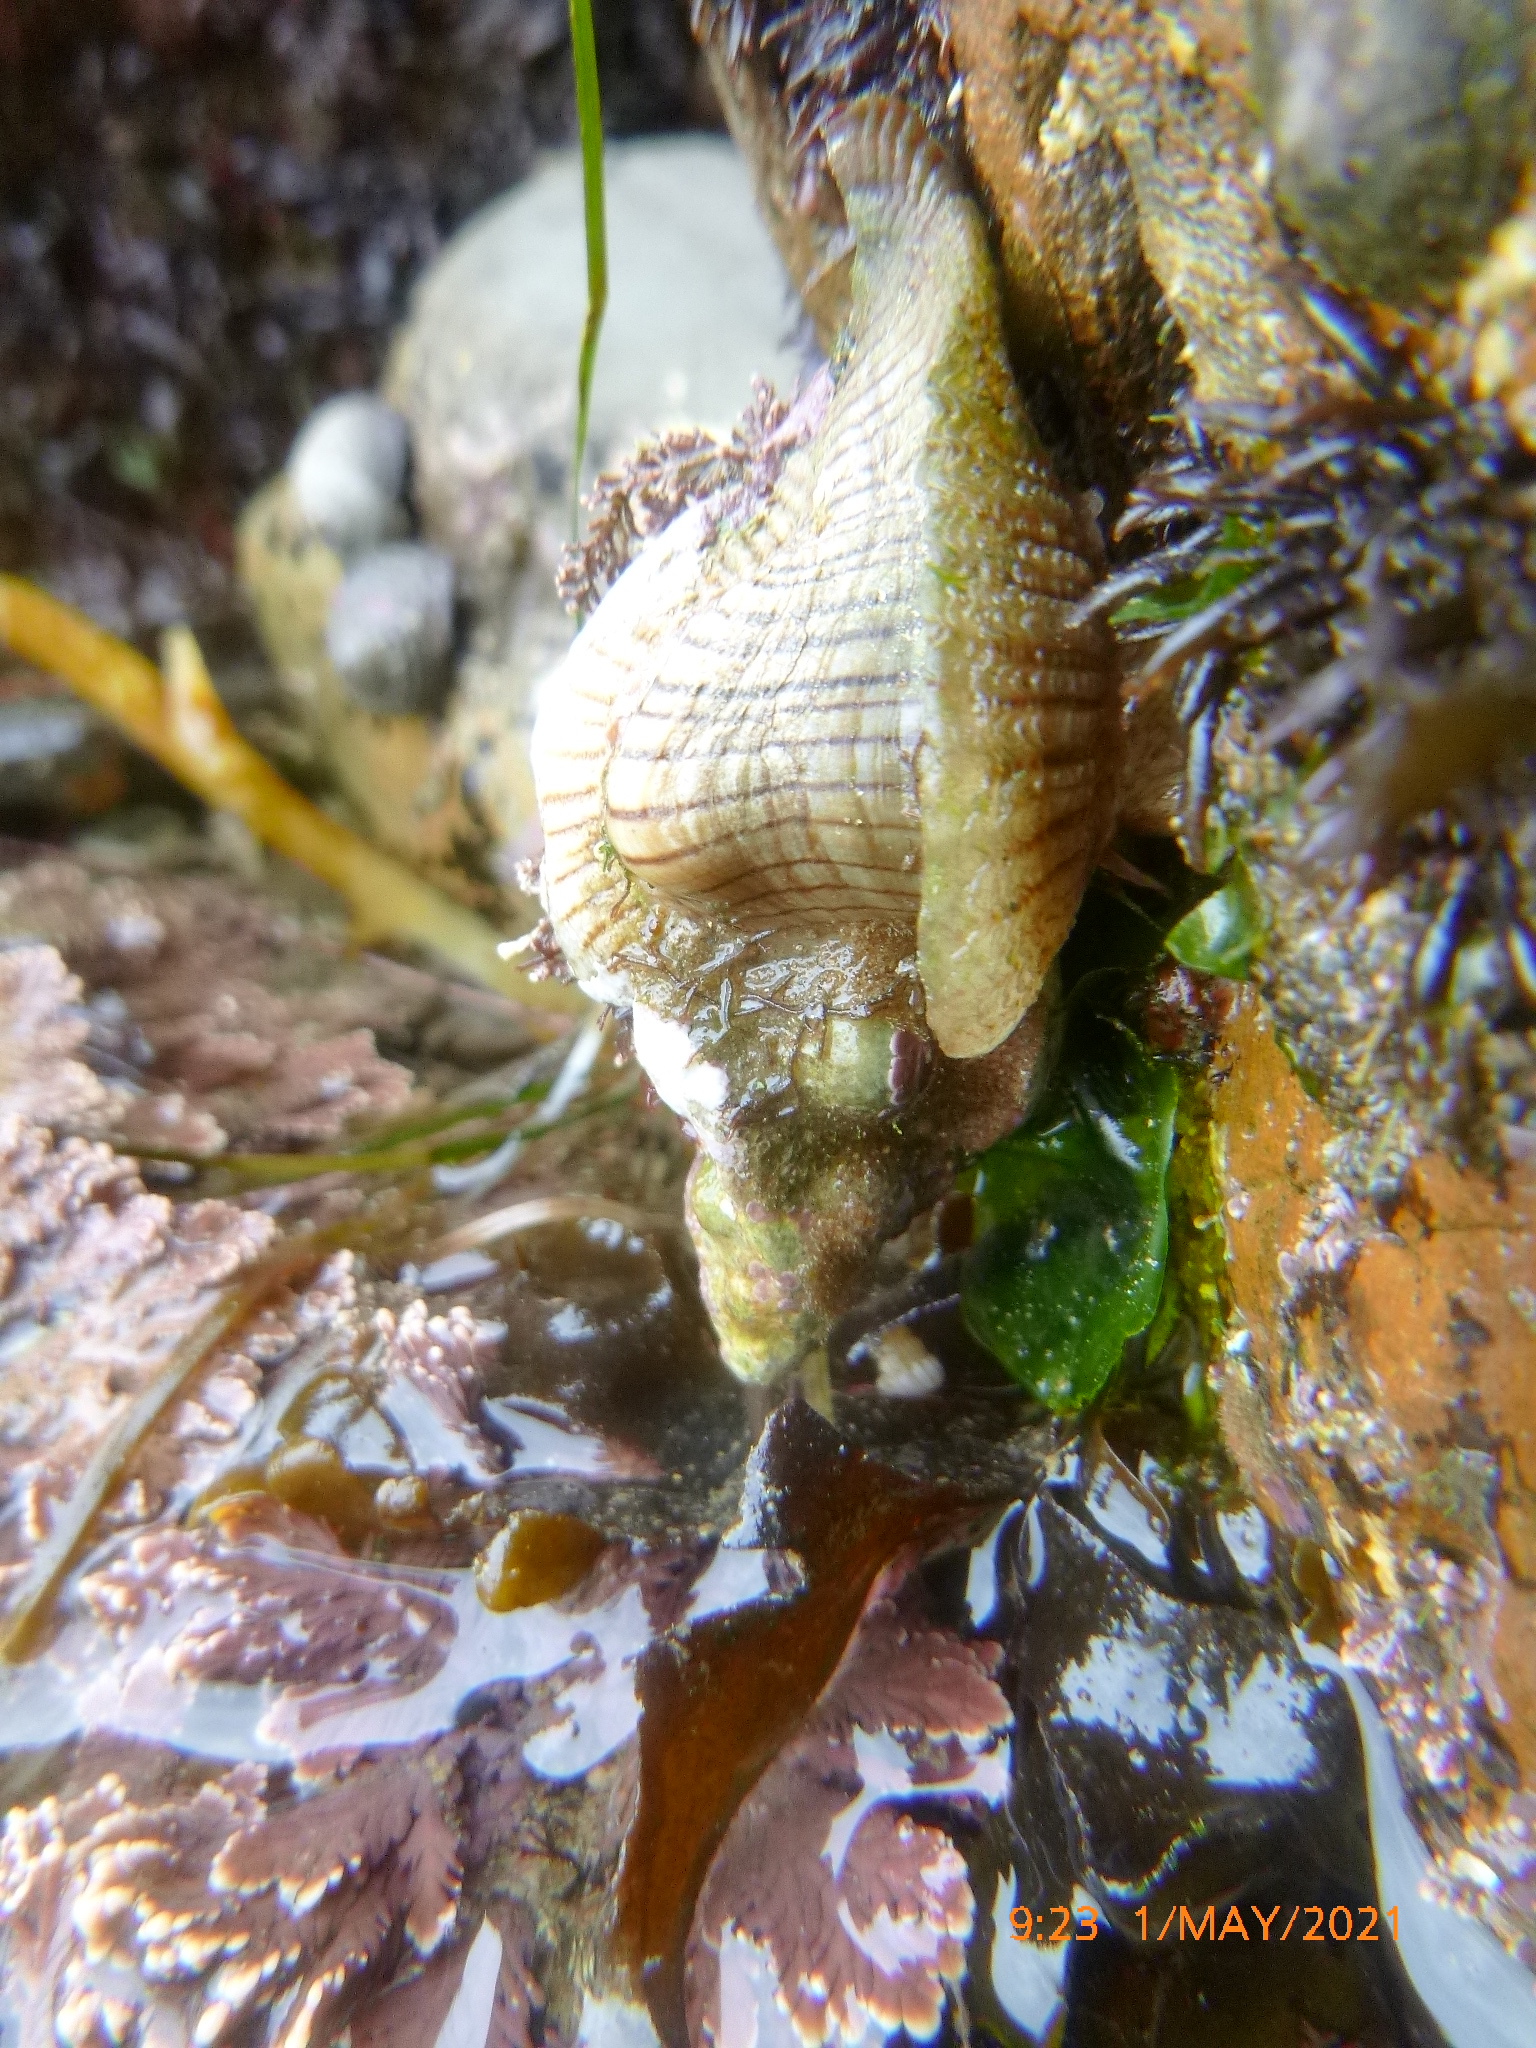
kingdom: Animalia
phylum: Mollusca
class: Gastropoda
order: Neogastropoda
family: Muricidae
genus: Pteropurpura
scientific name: Pteropurpura festiva
